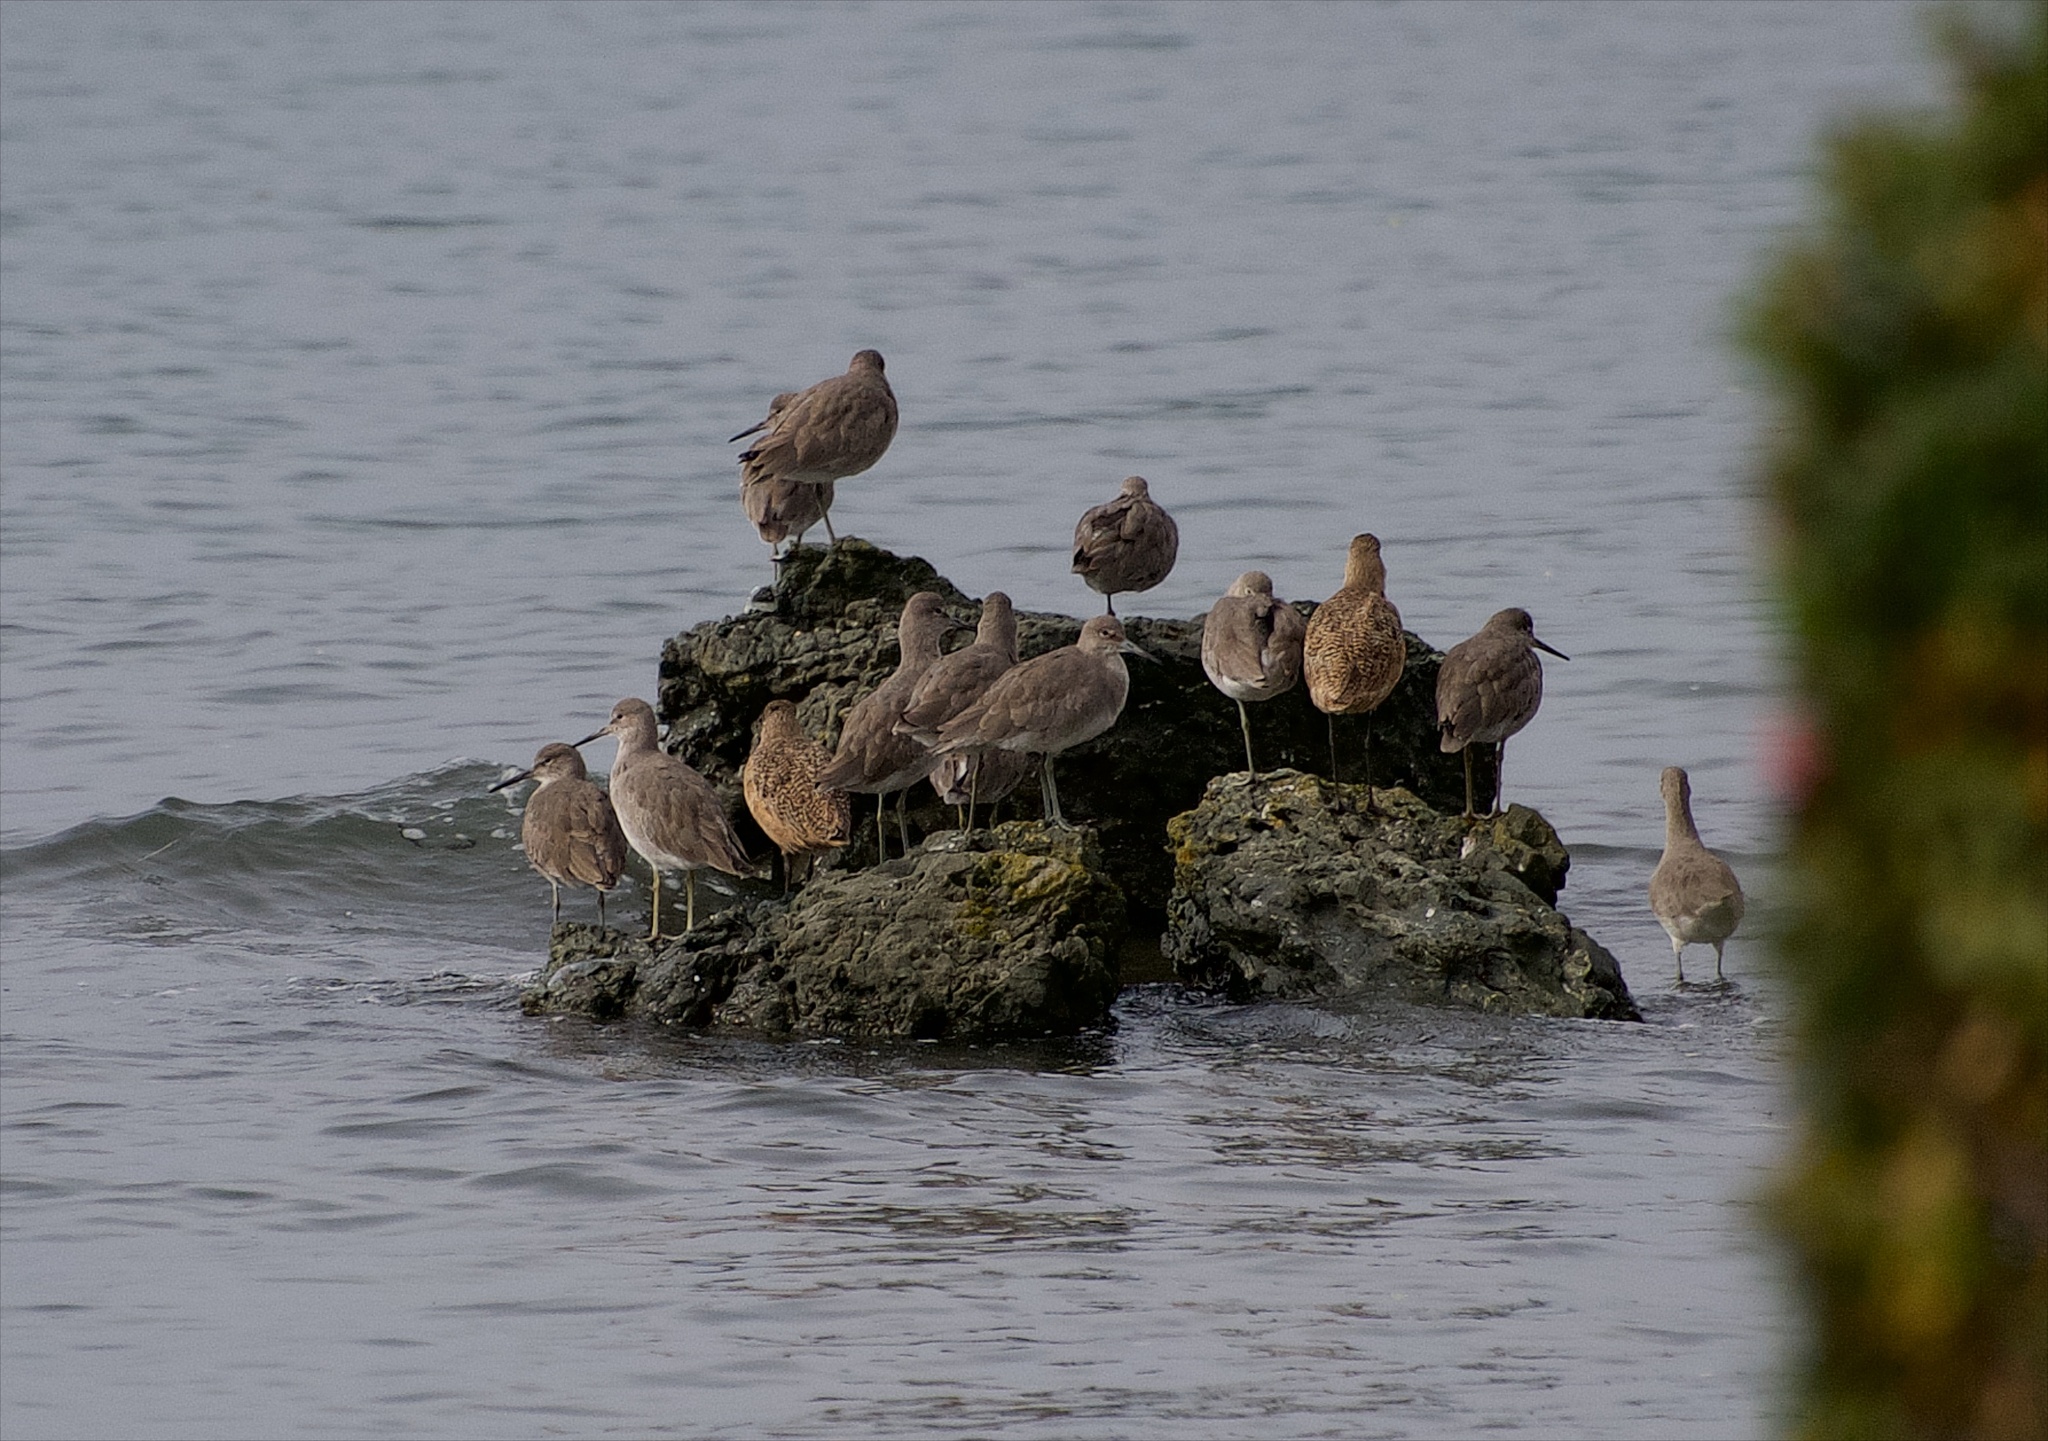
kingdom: Animalia
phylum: Chordata
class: Aves
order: Charadriiformes
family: Scolopacidae
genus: Tringa
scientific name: Tringa semipalmata
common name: Willet
